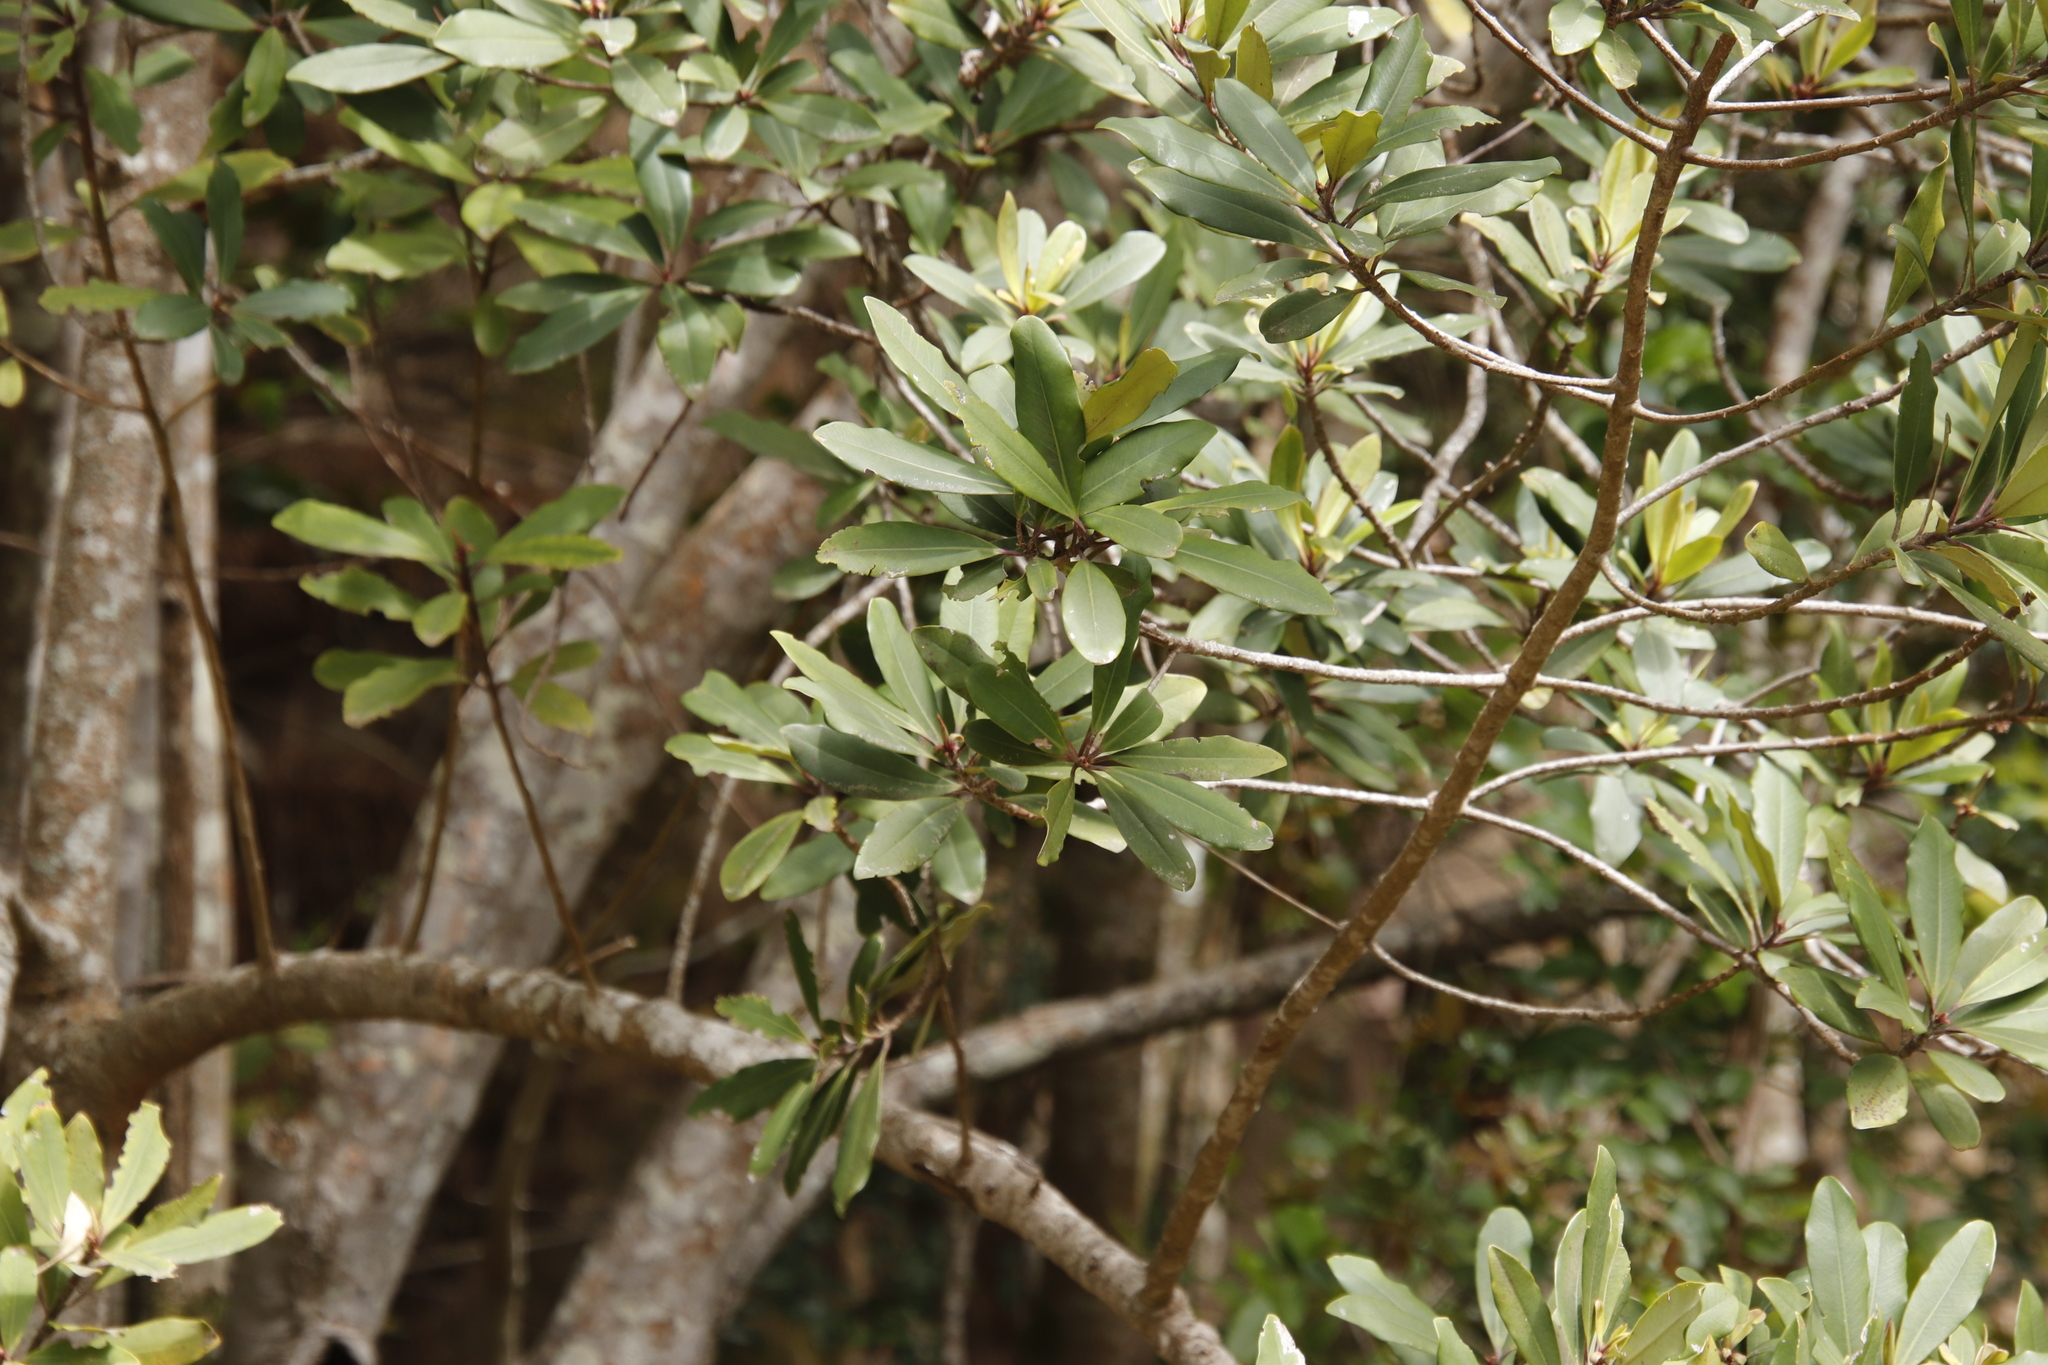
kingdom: Plantae
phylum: Tracheophyta
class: Magnoliopsida
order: Ericales
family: Primulaceae
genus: Myrsine
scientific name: Myrsine melanophloeos
